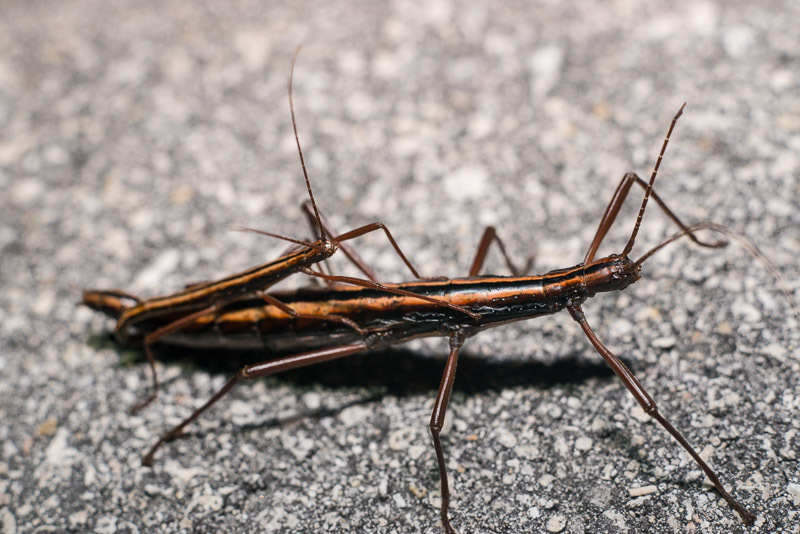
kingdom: Animalia
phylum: Arthropoda
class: Insecta
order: Phasmida
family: Pseudophasmatidae
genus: Anisomorpha
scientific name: Anisomorpha buprestoides
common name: Florida stick insect
